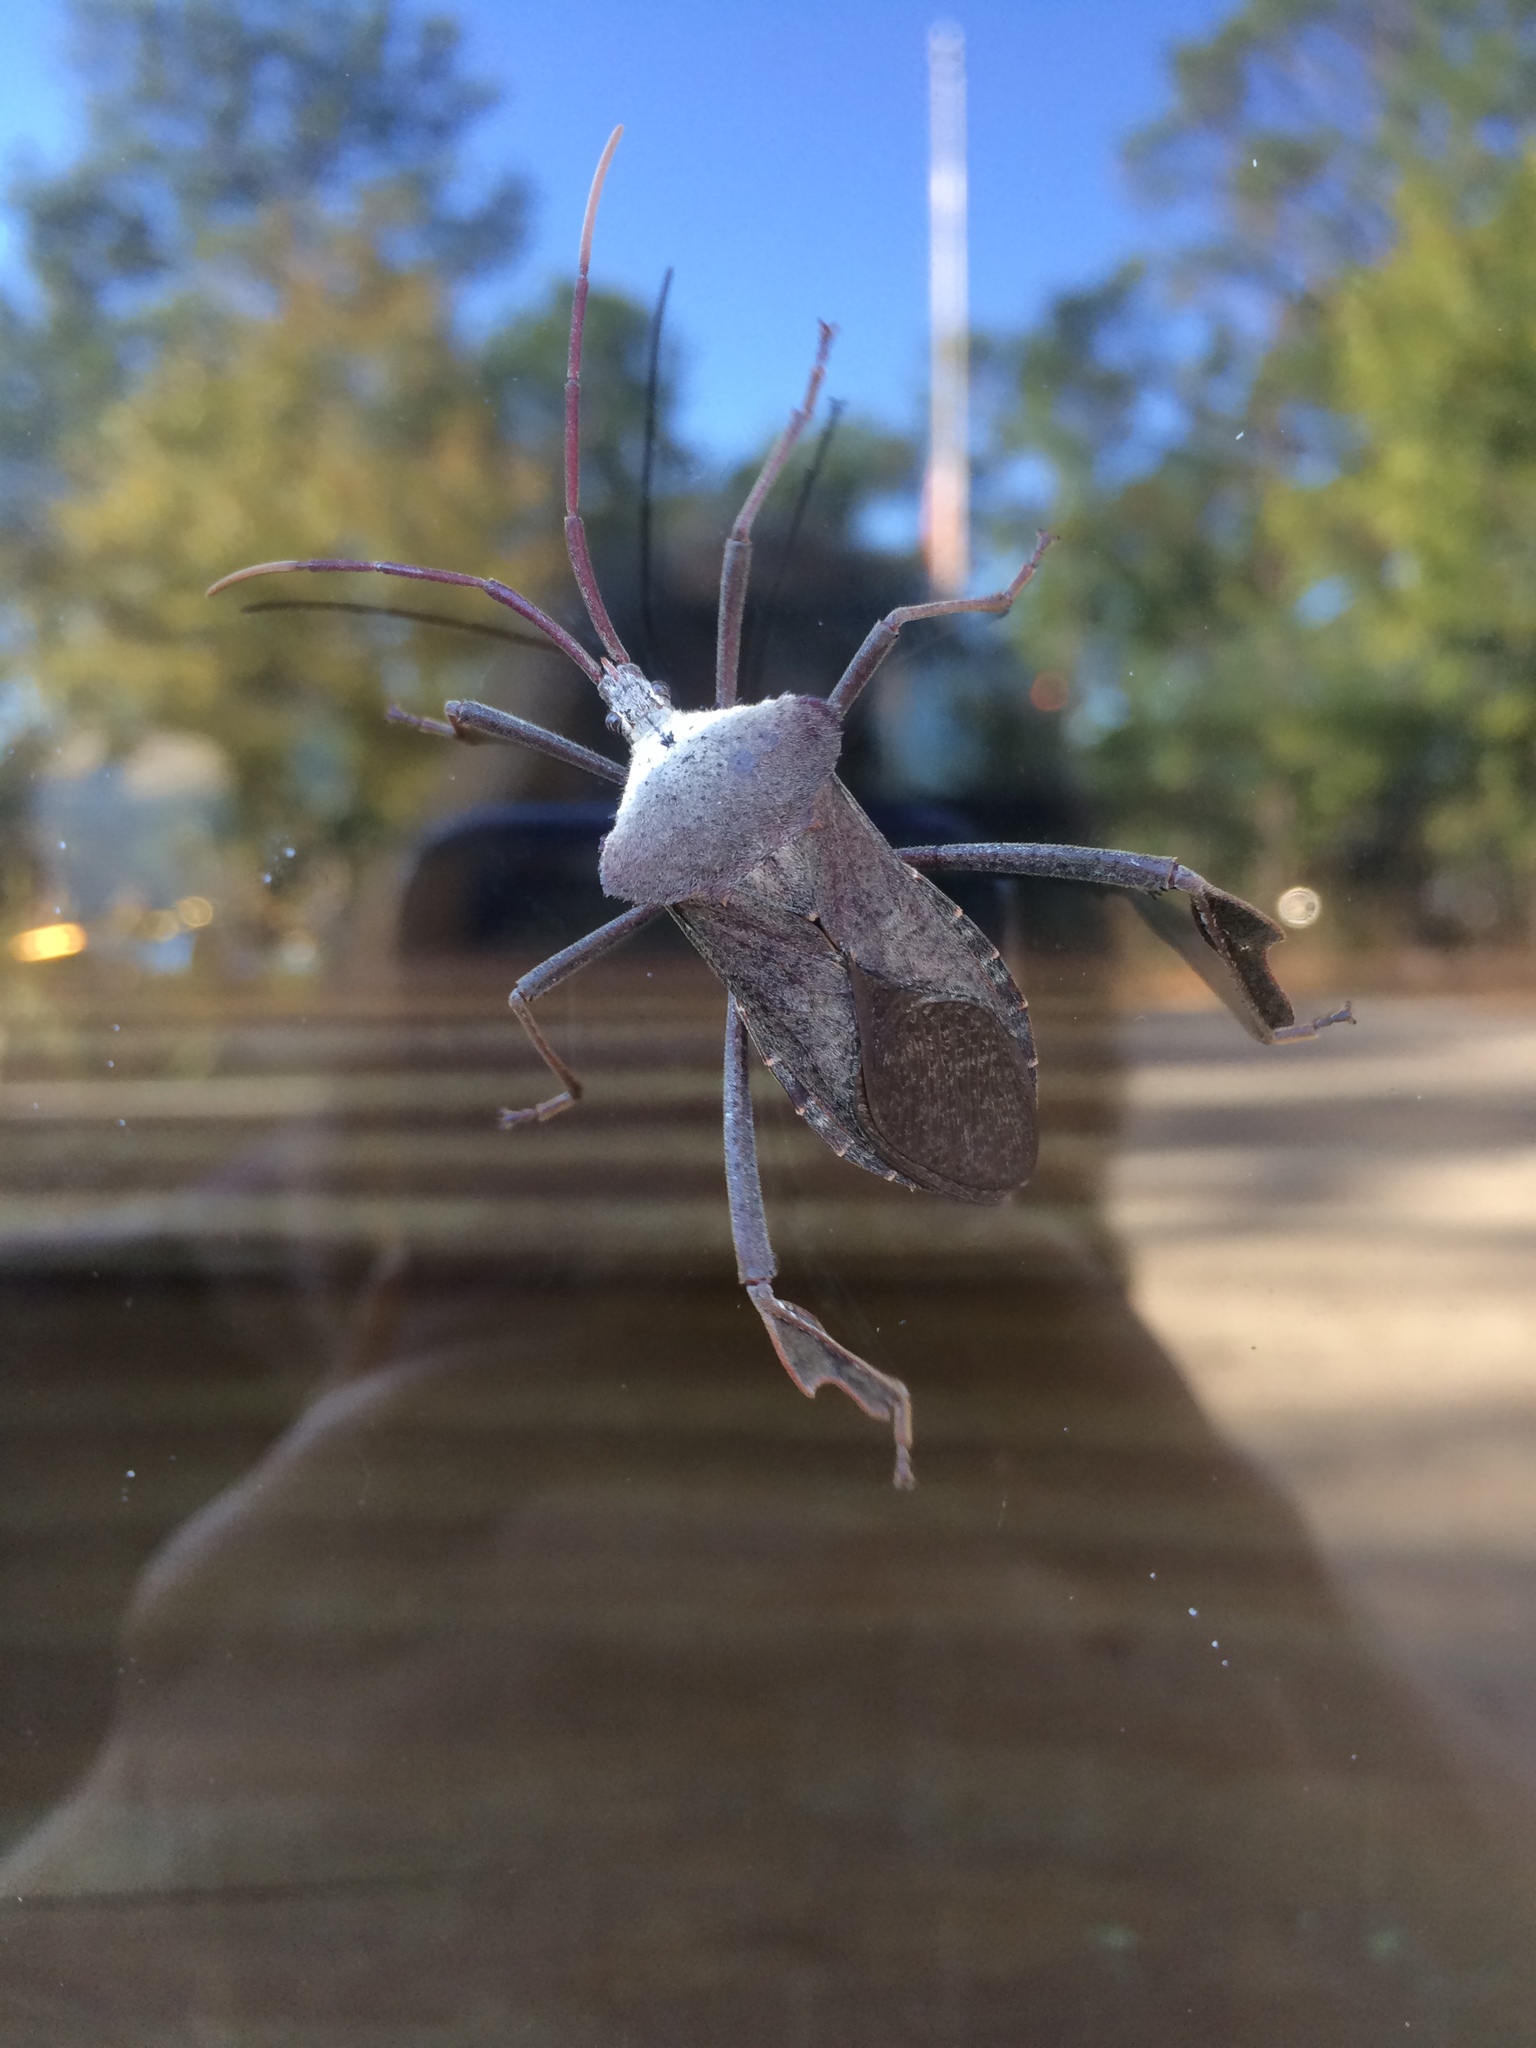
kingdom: Animalia
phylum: Arthropoda
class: Insecta
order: Hemiptera
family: Coreidae
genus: Acanthocephala
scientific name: Acanthocephala declivis
